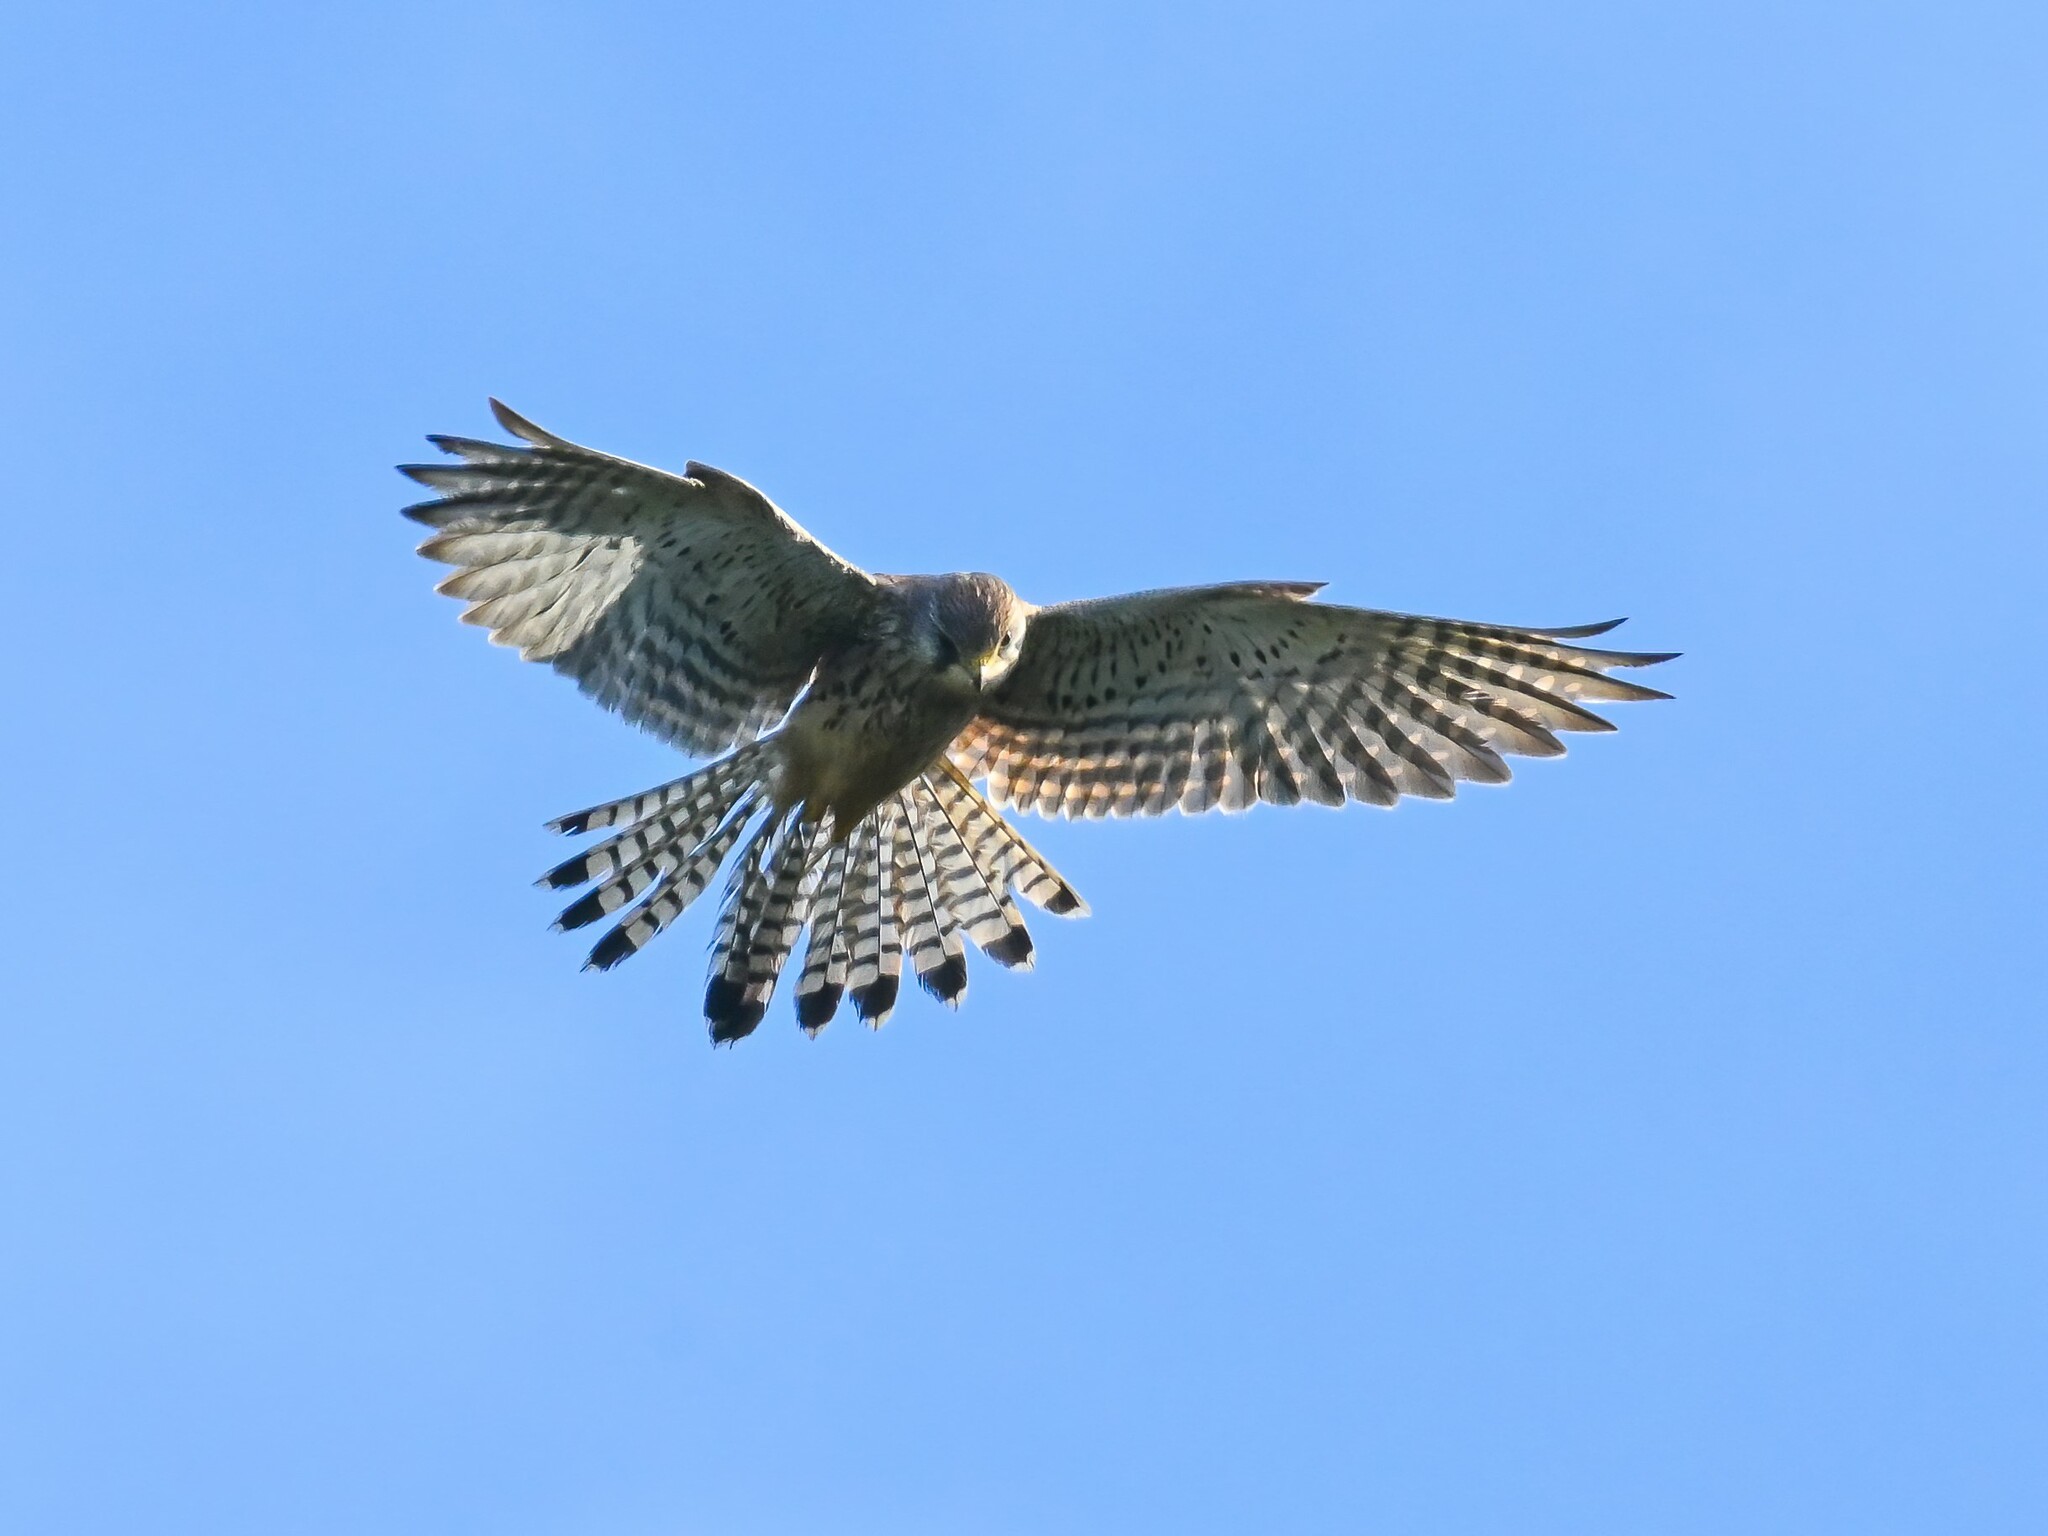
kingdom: Animalia
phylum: Chordata
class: Aves
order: Falconiformes
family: Falconidae
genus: Falco
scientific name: Falco tinnunculus
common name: Common kestrel
